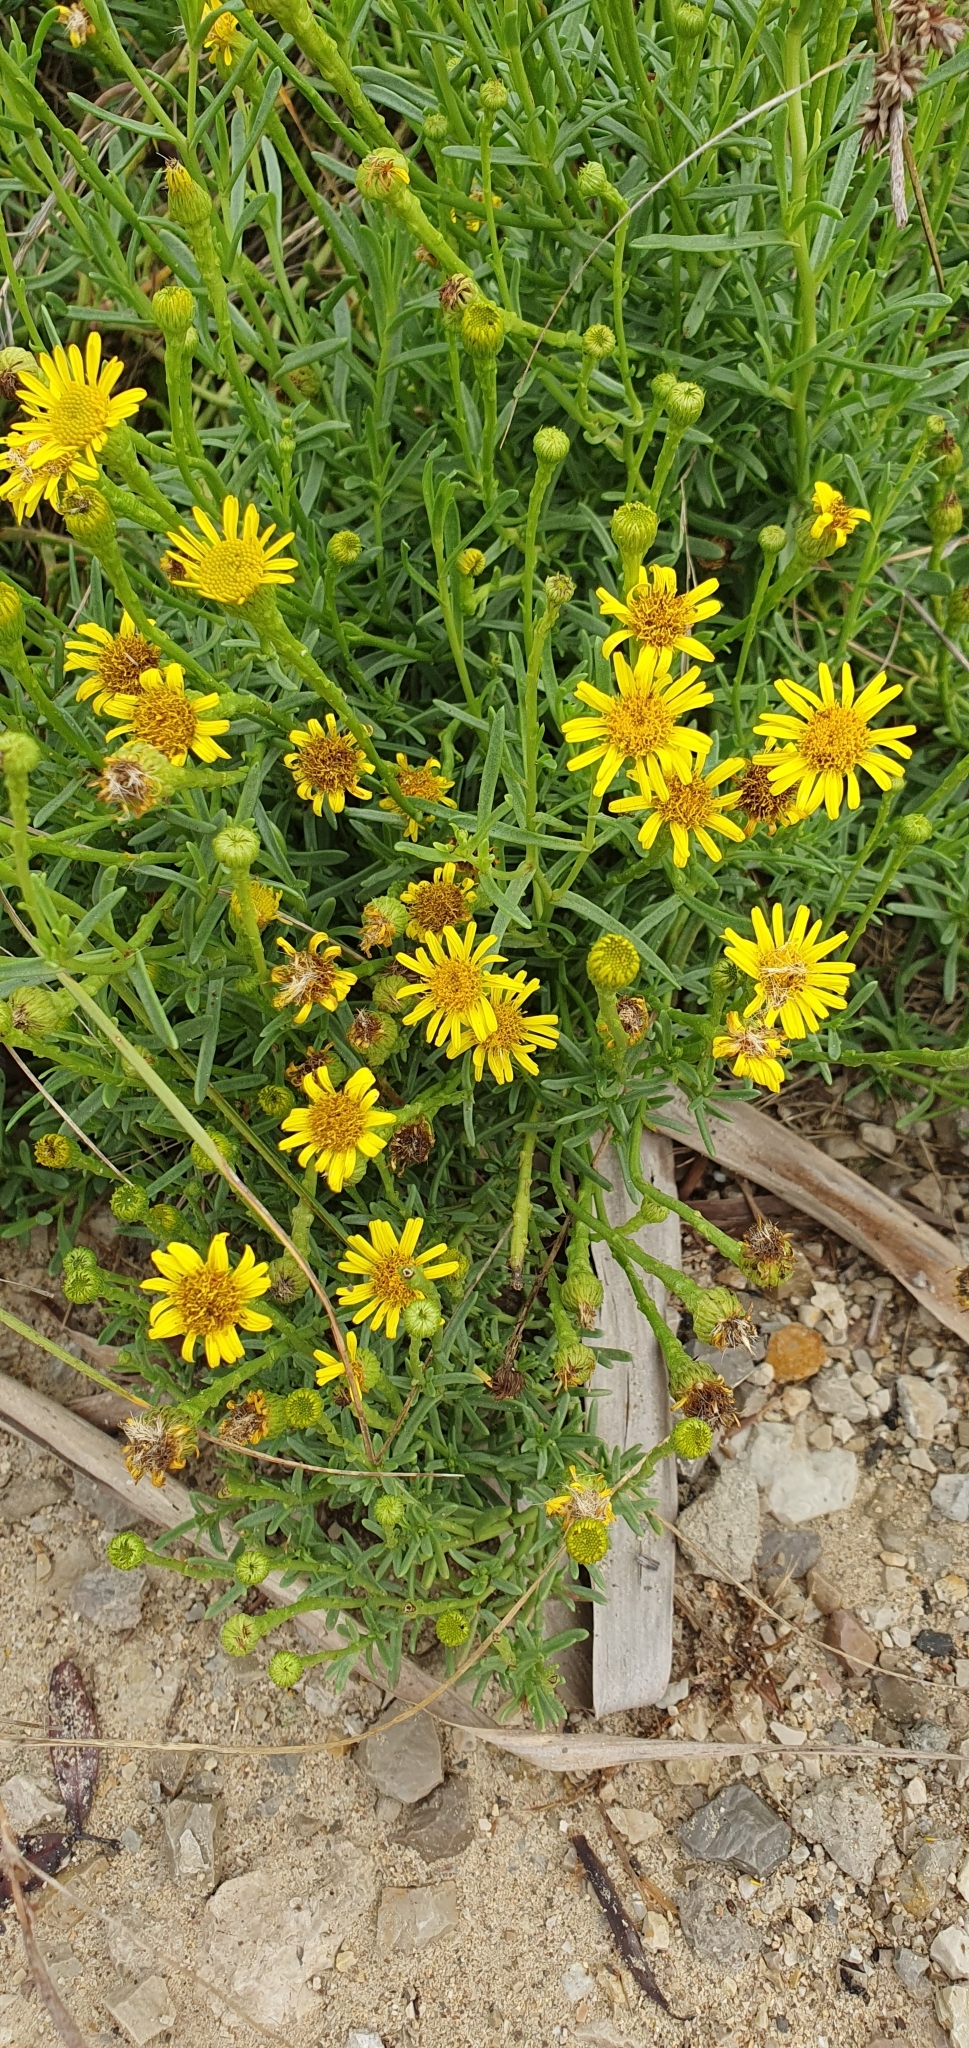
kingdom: Plantae
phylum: Tracheophyta
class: Magnoliopsida
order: Asterales
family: Asteraceae
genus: Limbarda
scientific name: Limbarda crithmoides
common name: Golden samphire
